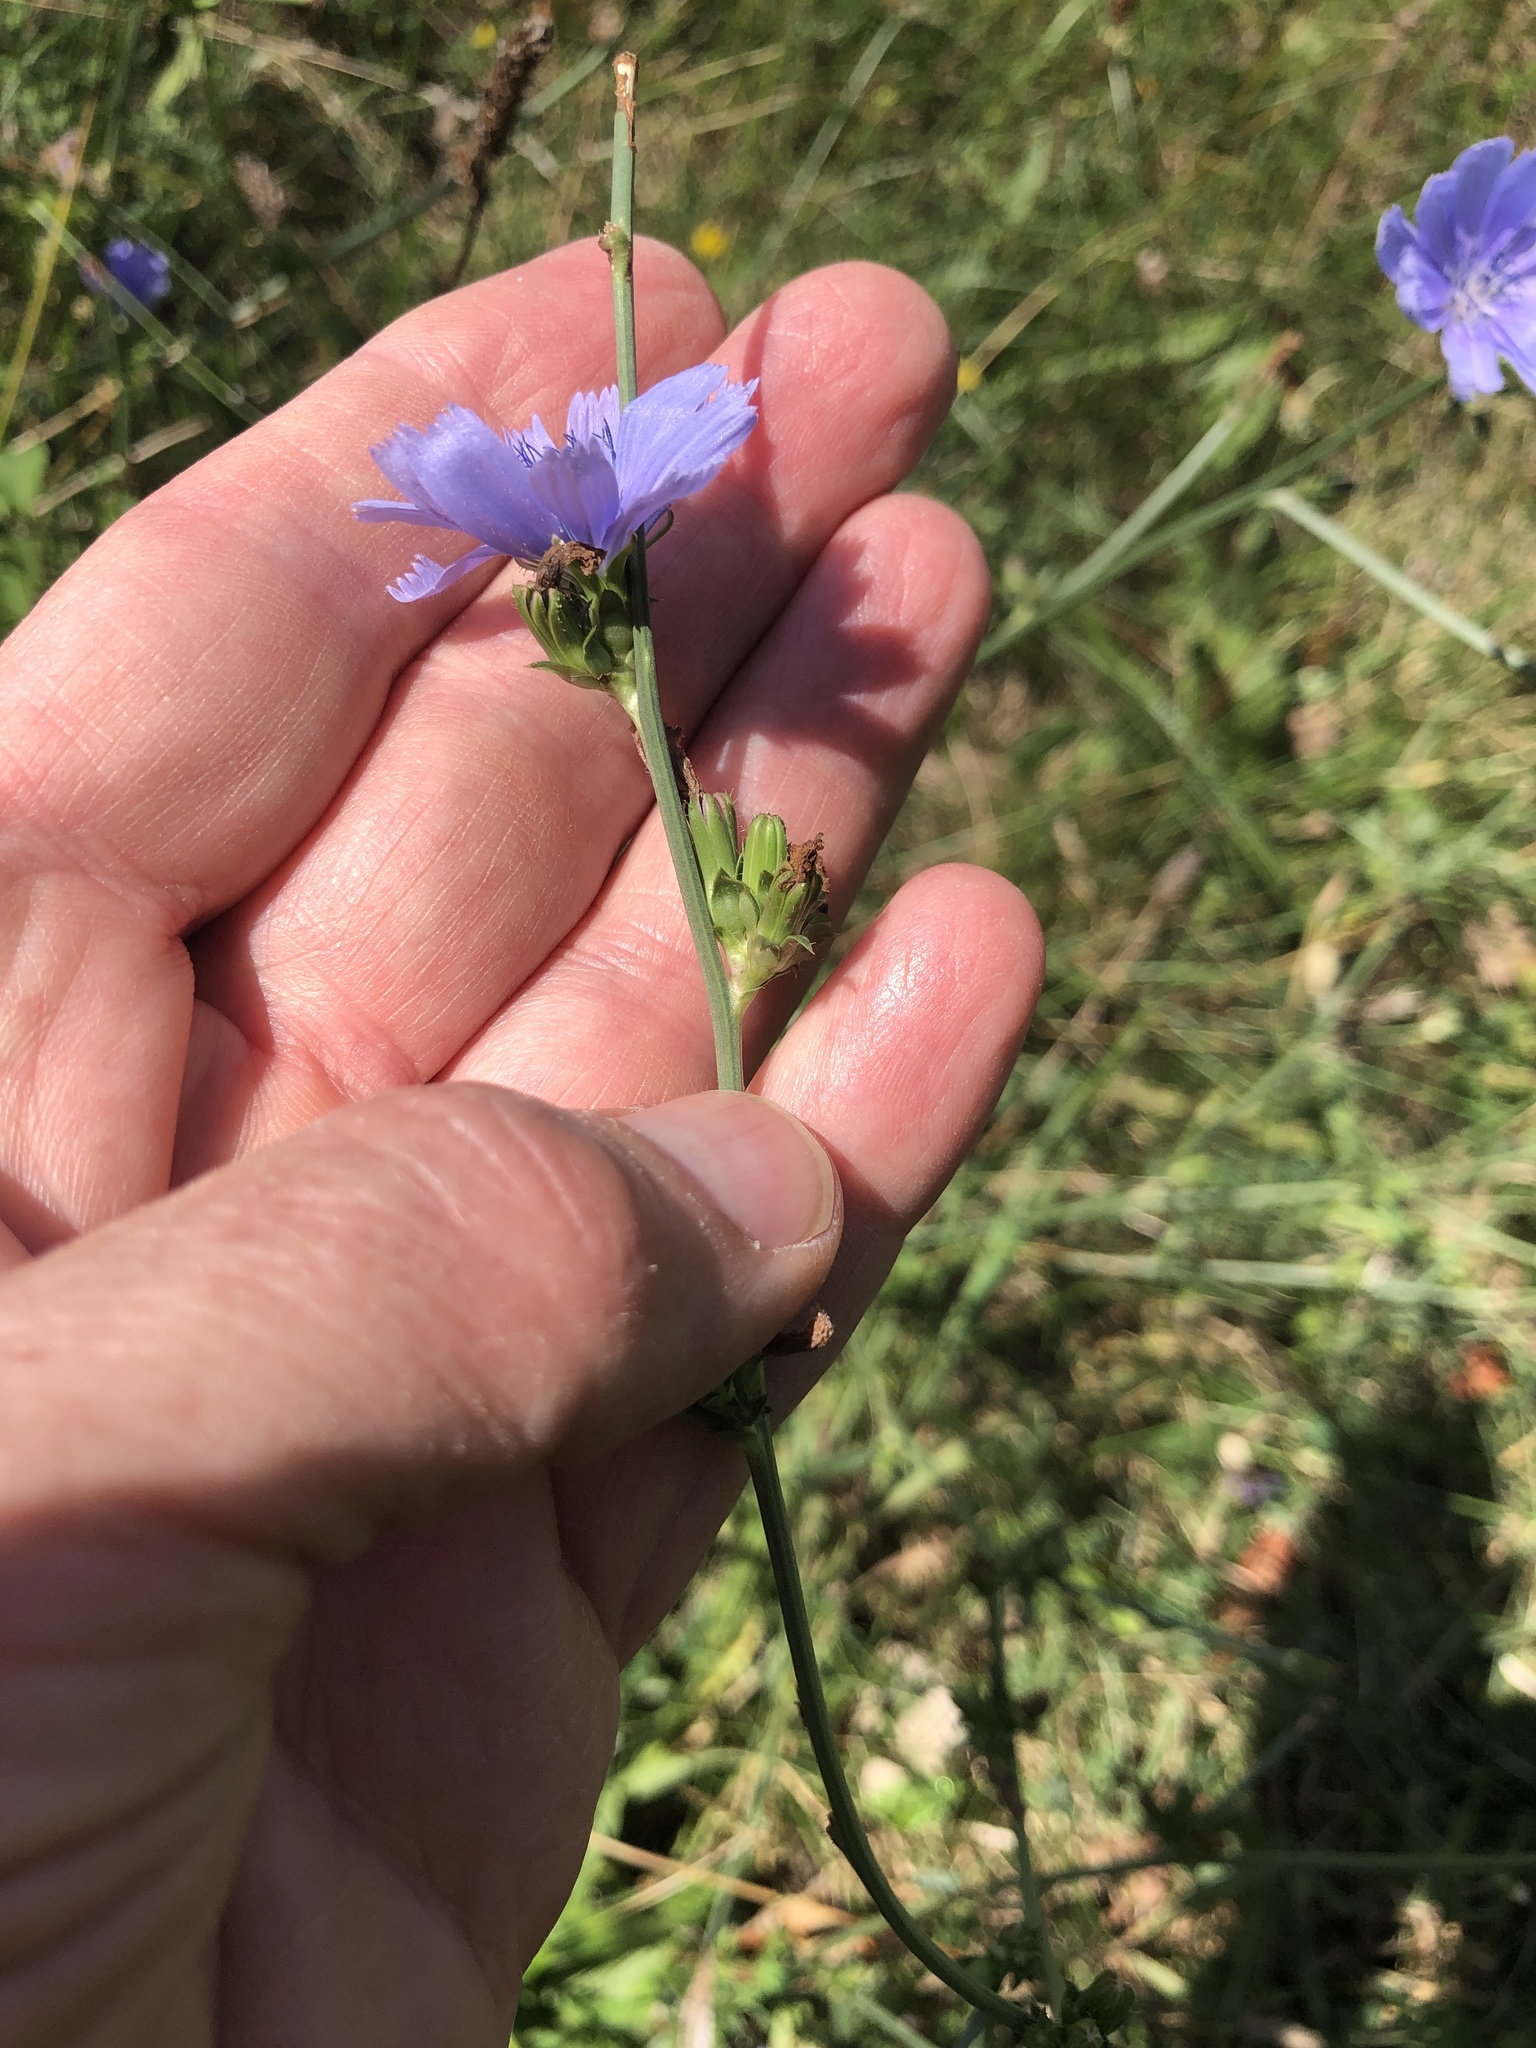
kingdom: Plantae
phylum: Tracheophyta
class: Magnoliopsida
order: Asterales
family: Asteraceae
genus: Cichorium
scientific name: Cichorium intybus
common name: Chicory
